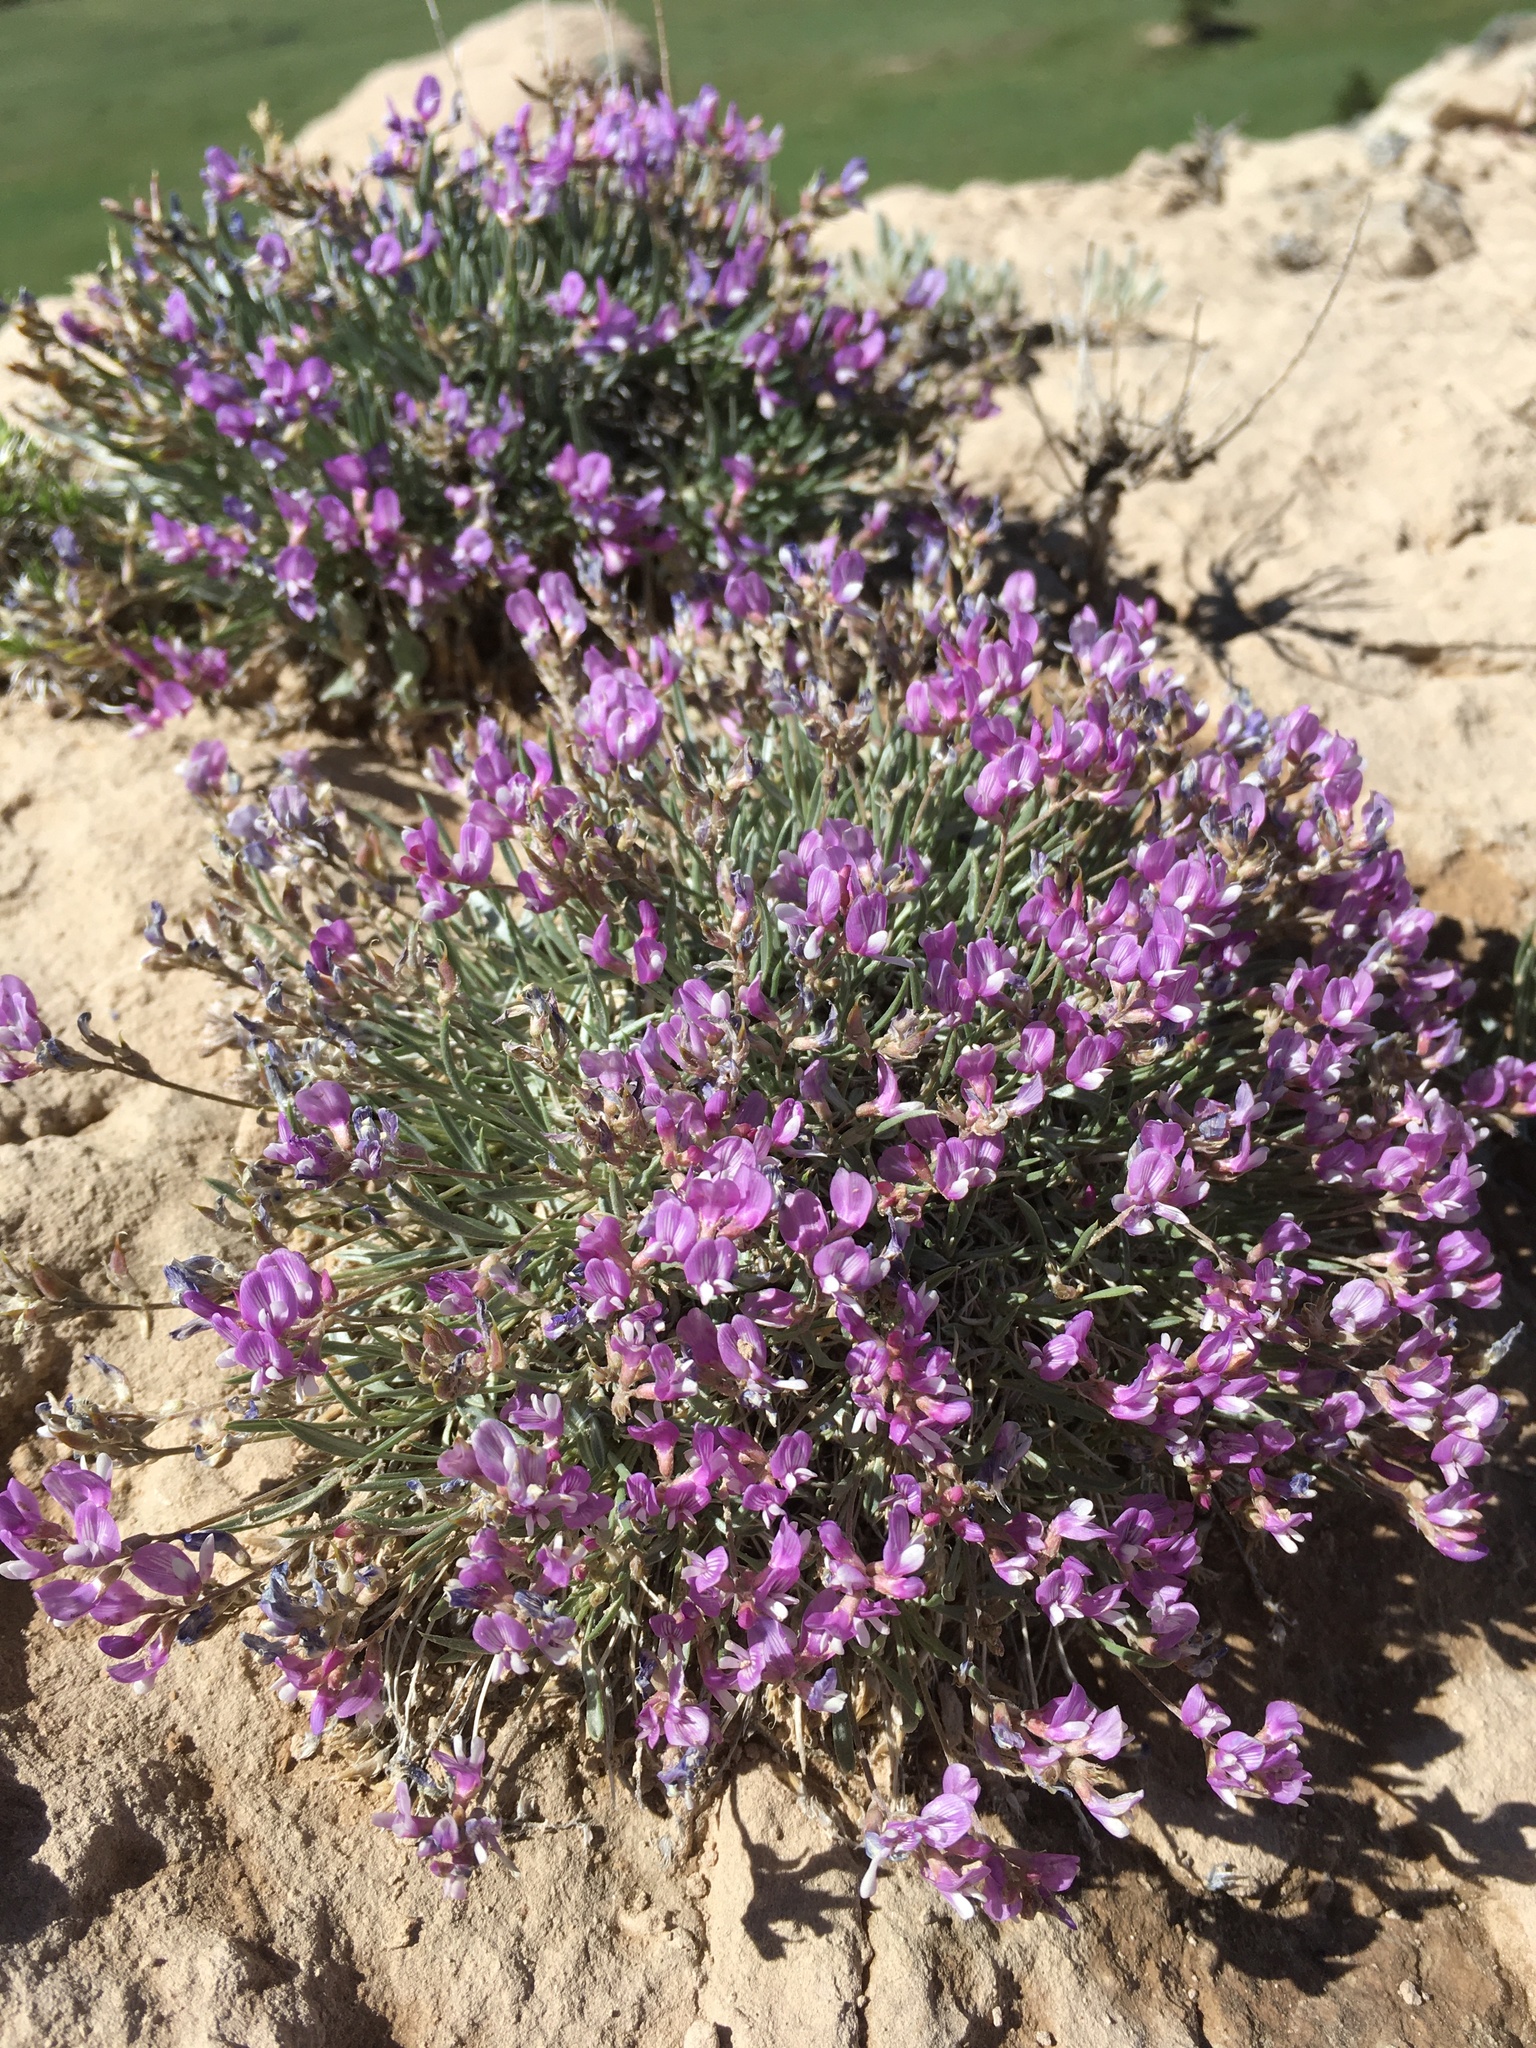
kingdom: Plantae
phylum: Tracheophyta
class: Magnoliopsida
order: Fabales
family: Fabaceae
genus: Astragalus
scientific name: Astragalus spatulatus
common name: Draba milk-vetch
